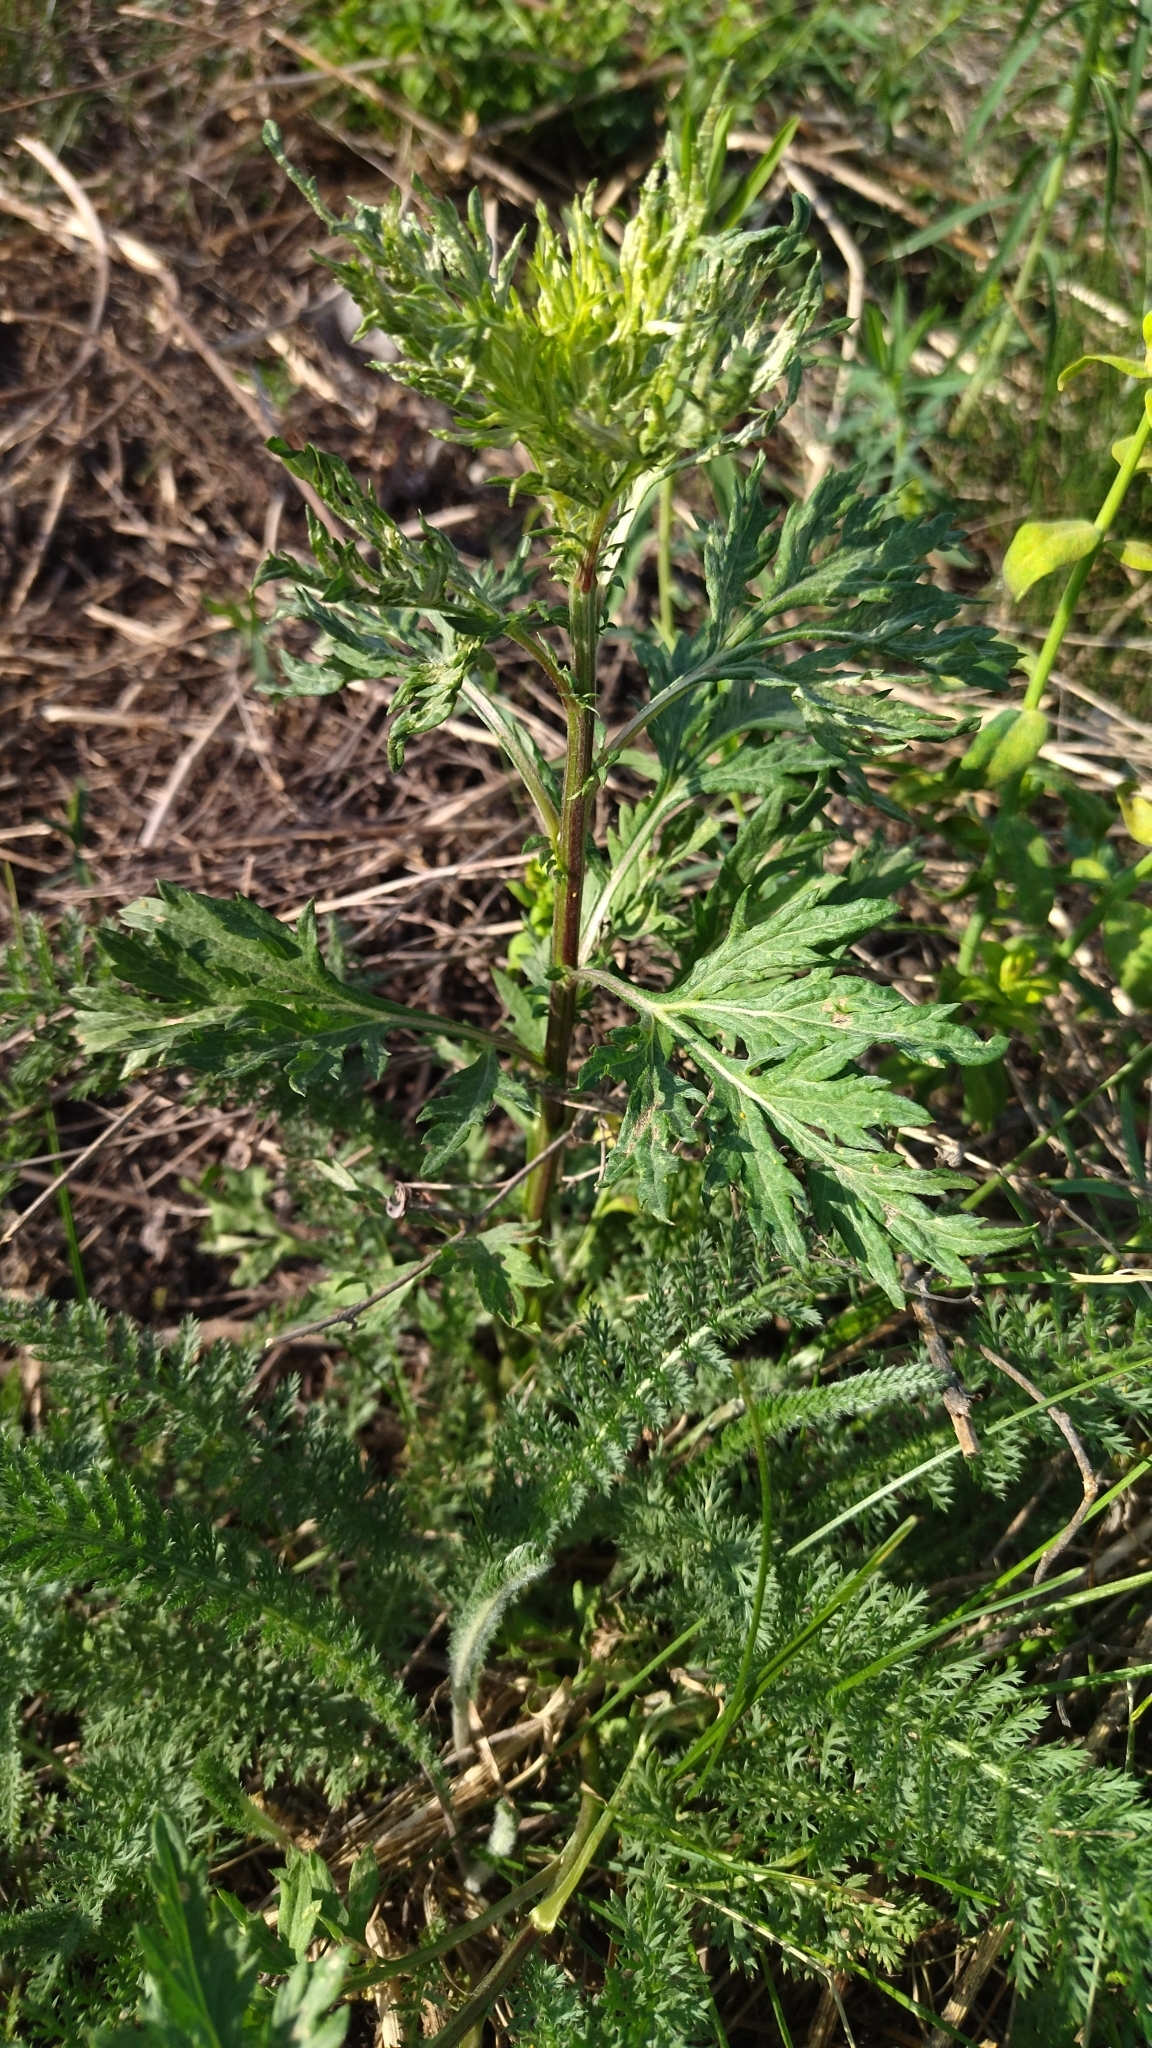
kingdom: Plantae
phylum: Tracheophyta
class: Magnoliopsida
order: Asterales
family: Asteraceae
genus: Artemisia
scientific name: Artemisia vulgaris
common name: Mugwort
